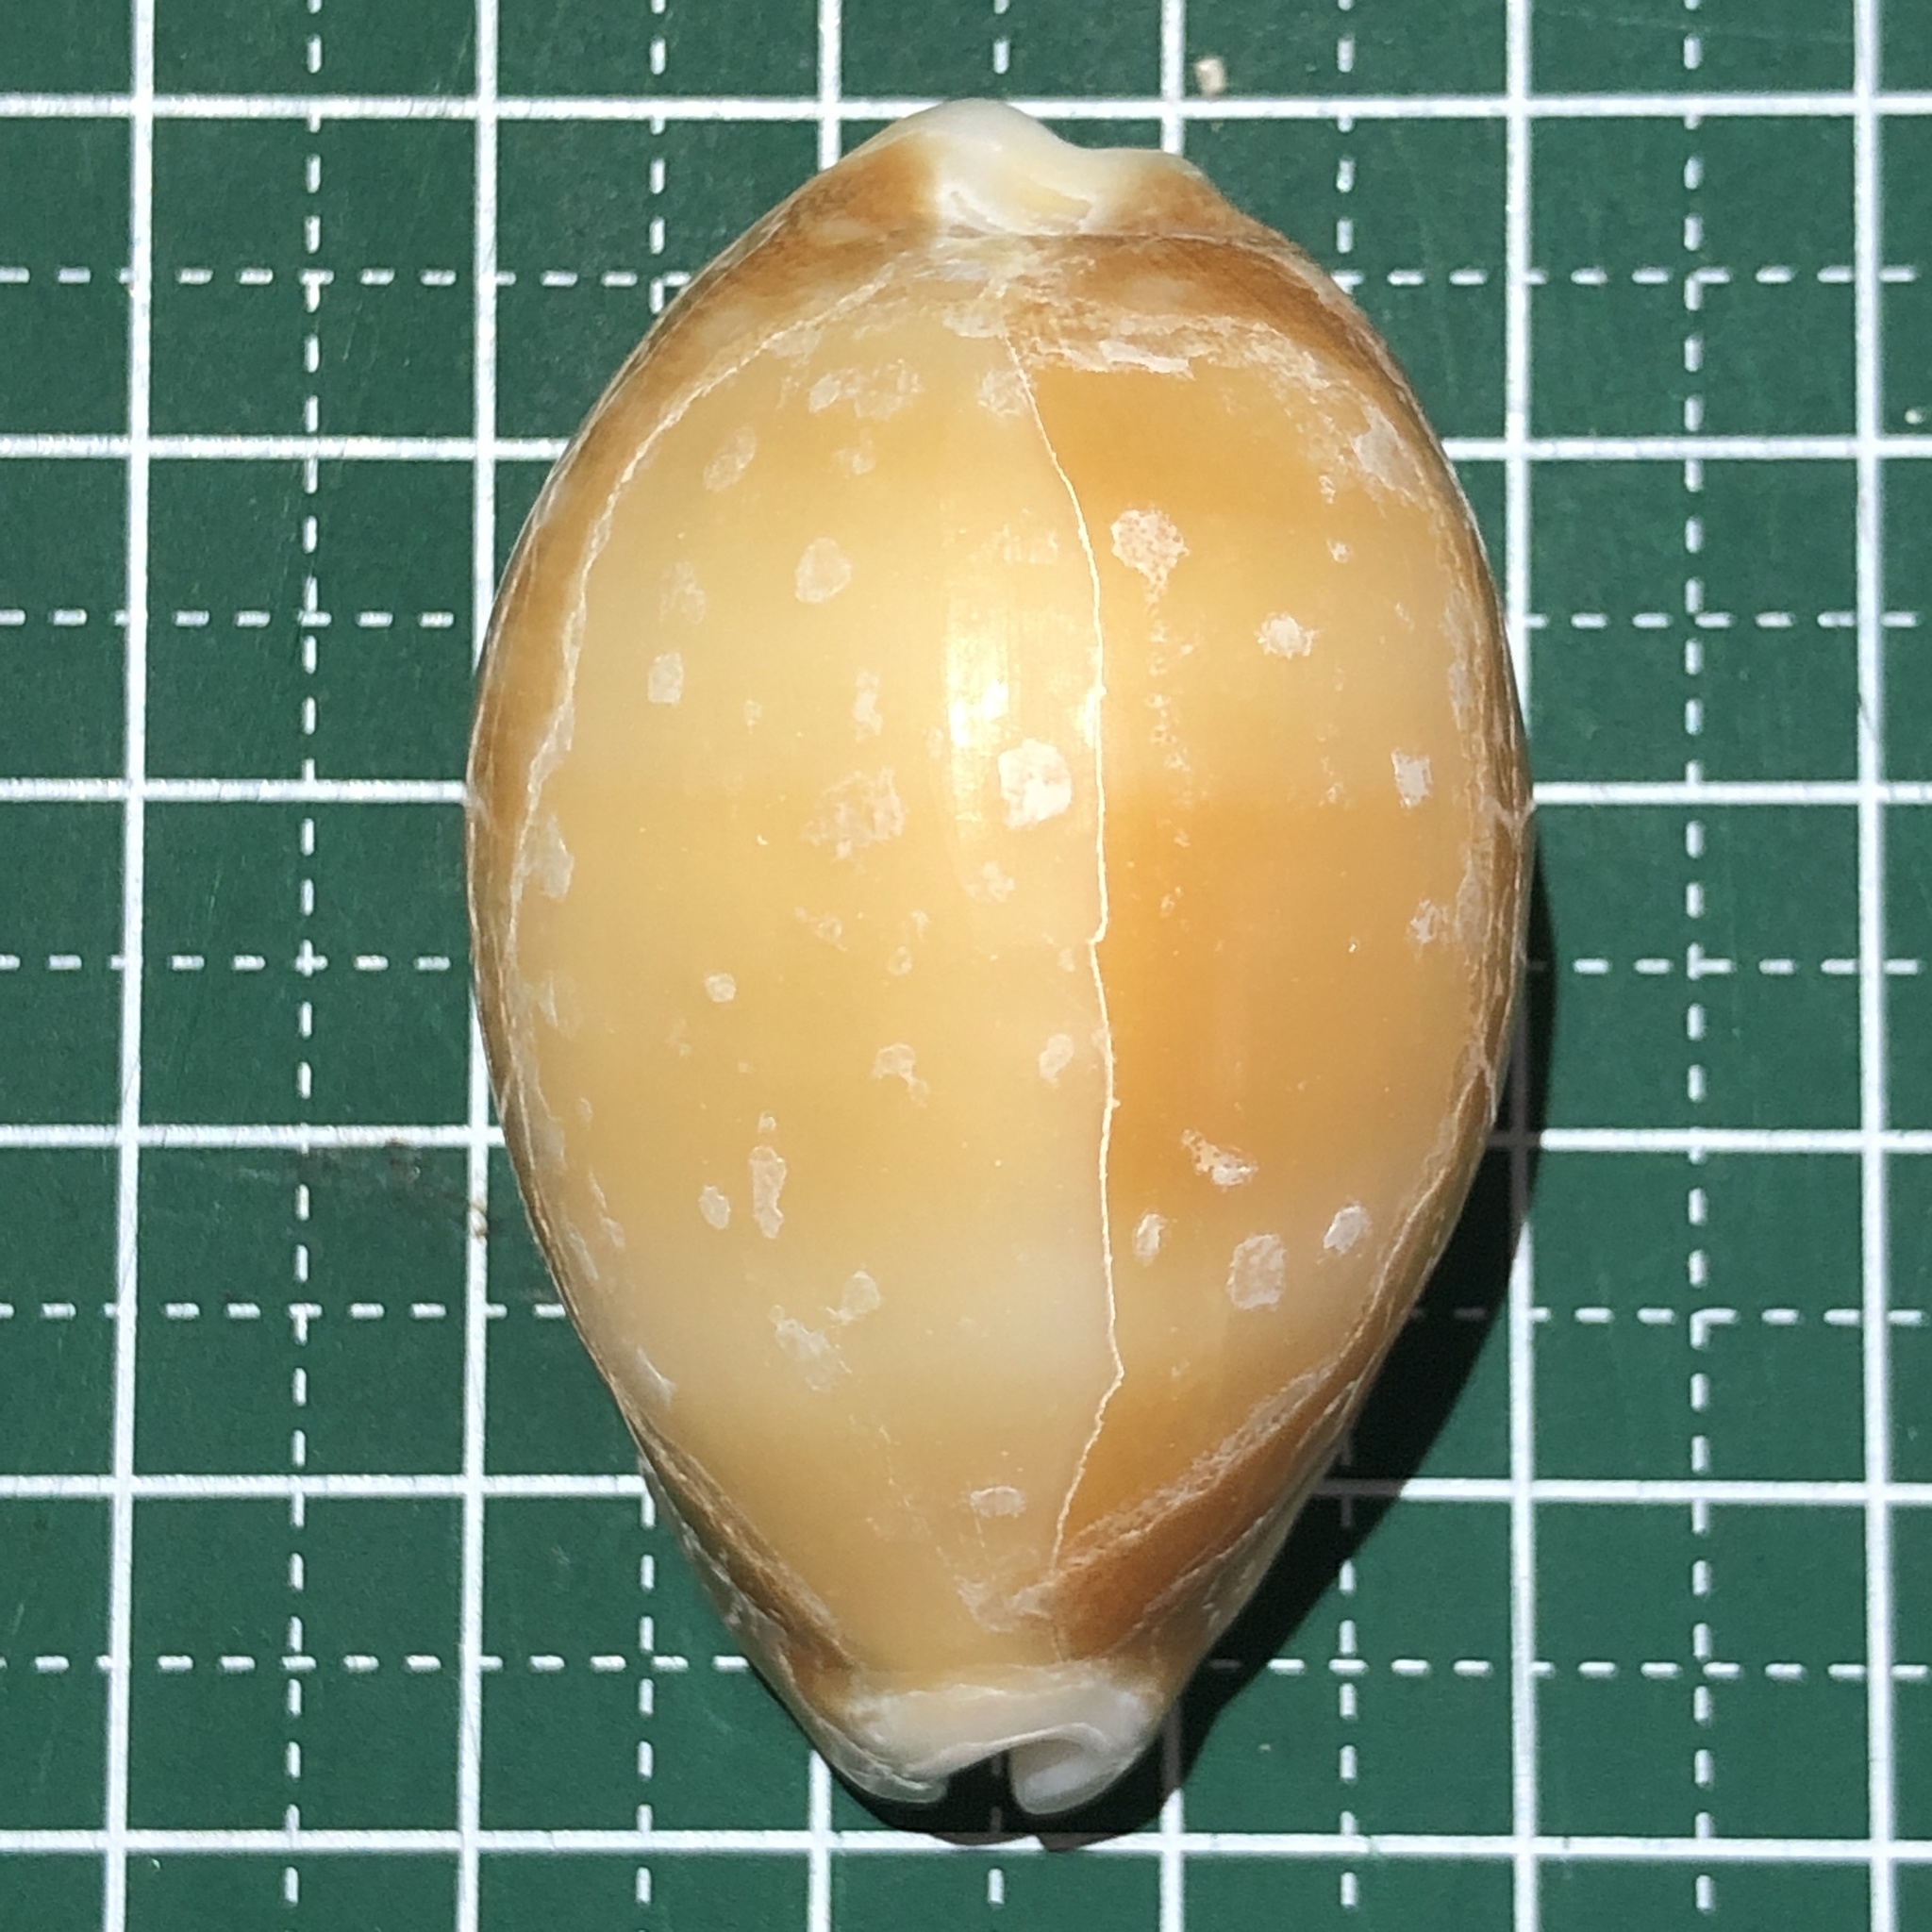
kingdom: Animalia
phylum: Mollusca
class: Gastropoda
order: Littorinimorpha
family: Cypraeidae
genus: Lyncina
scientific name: Lyncina vitellus
